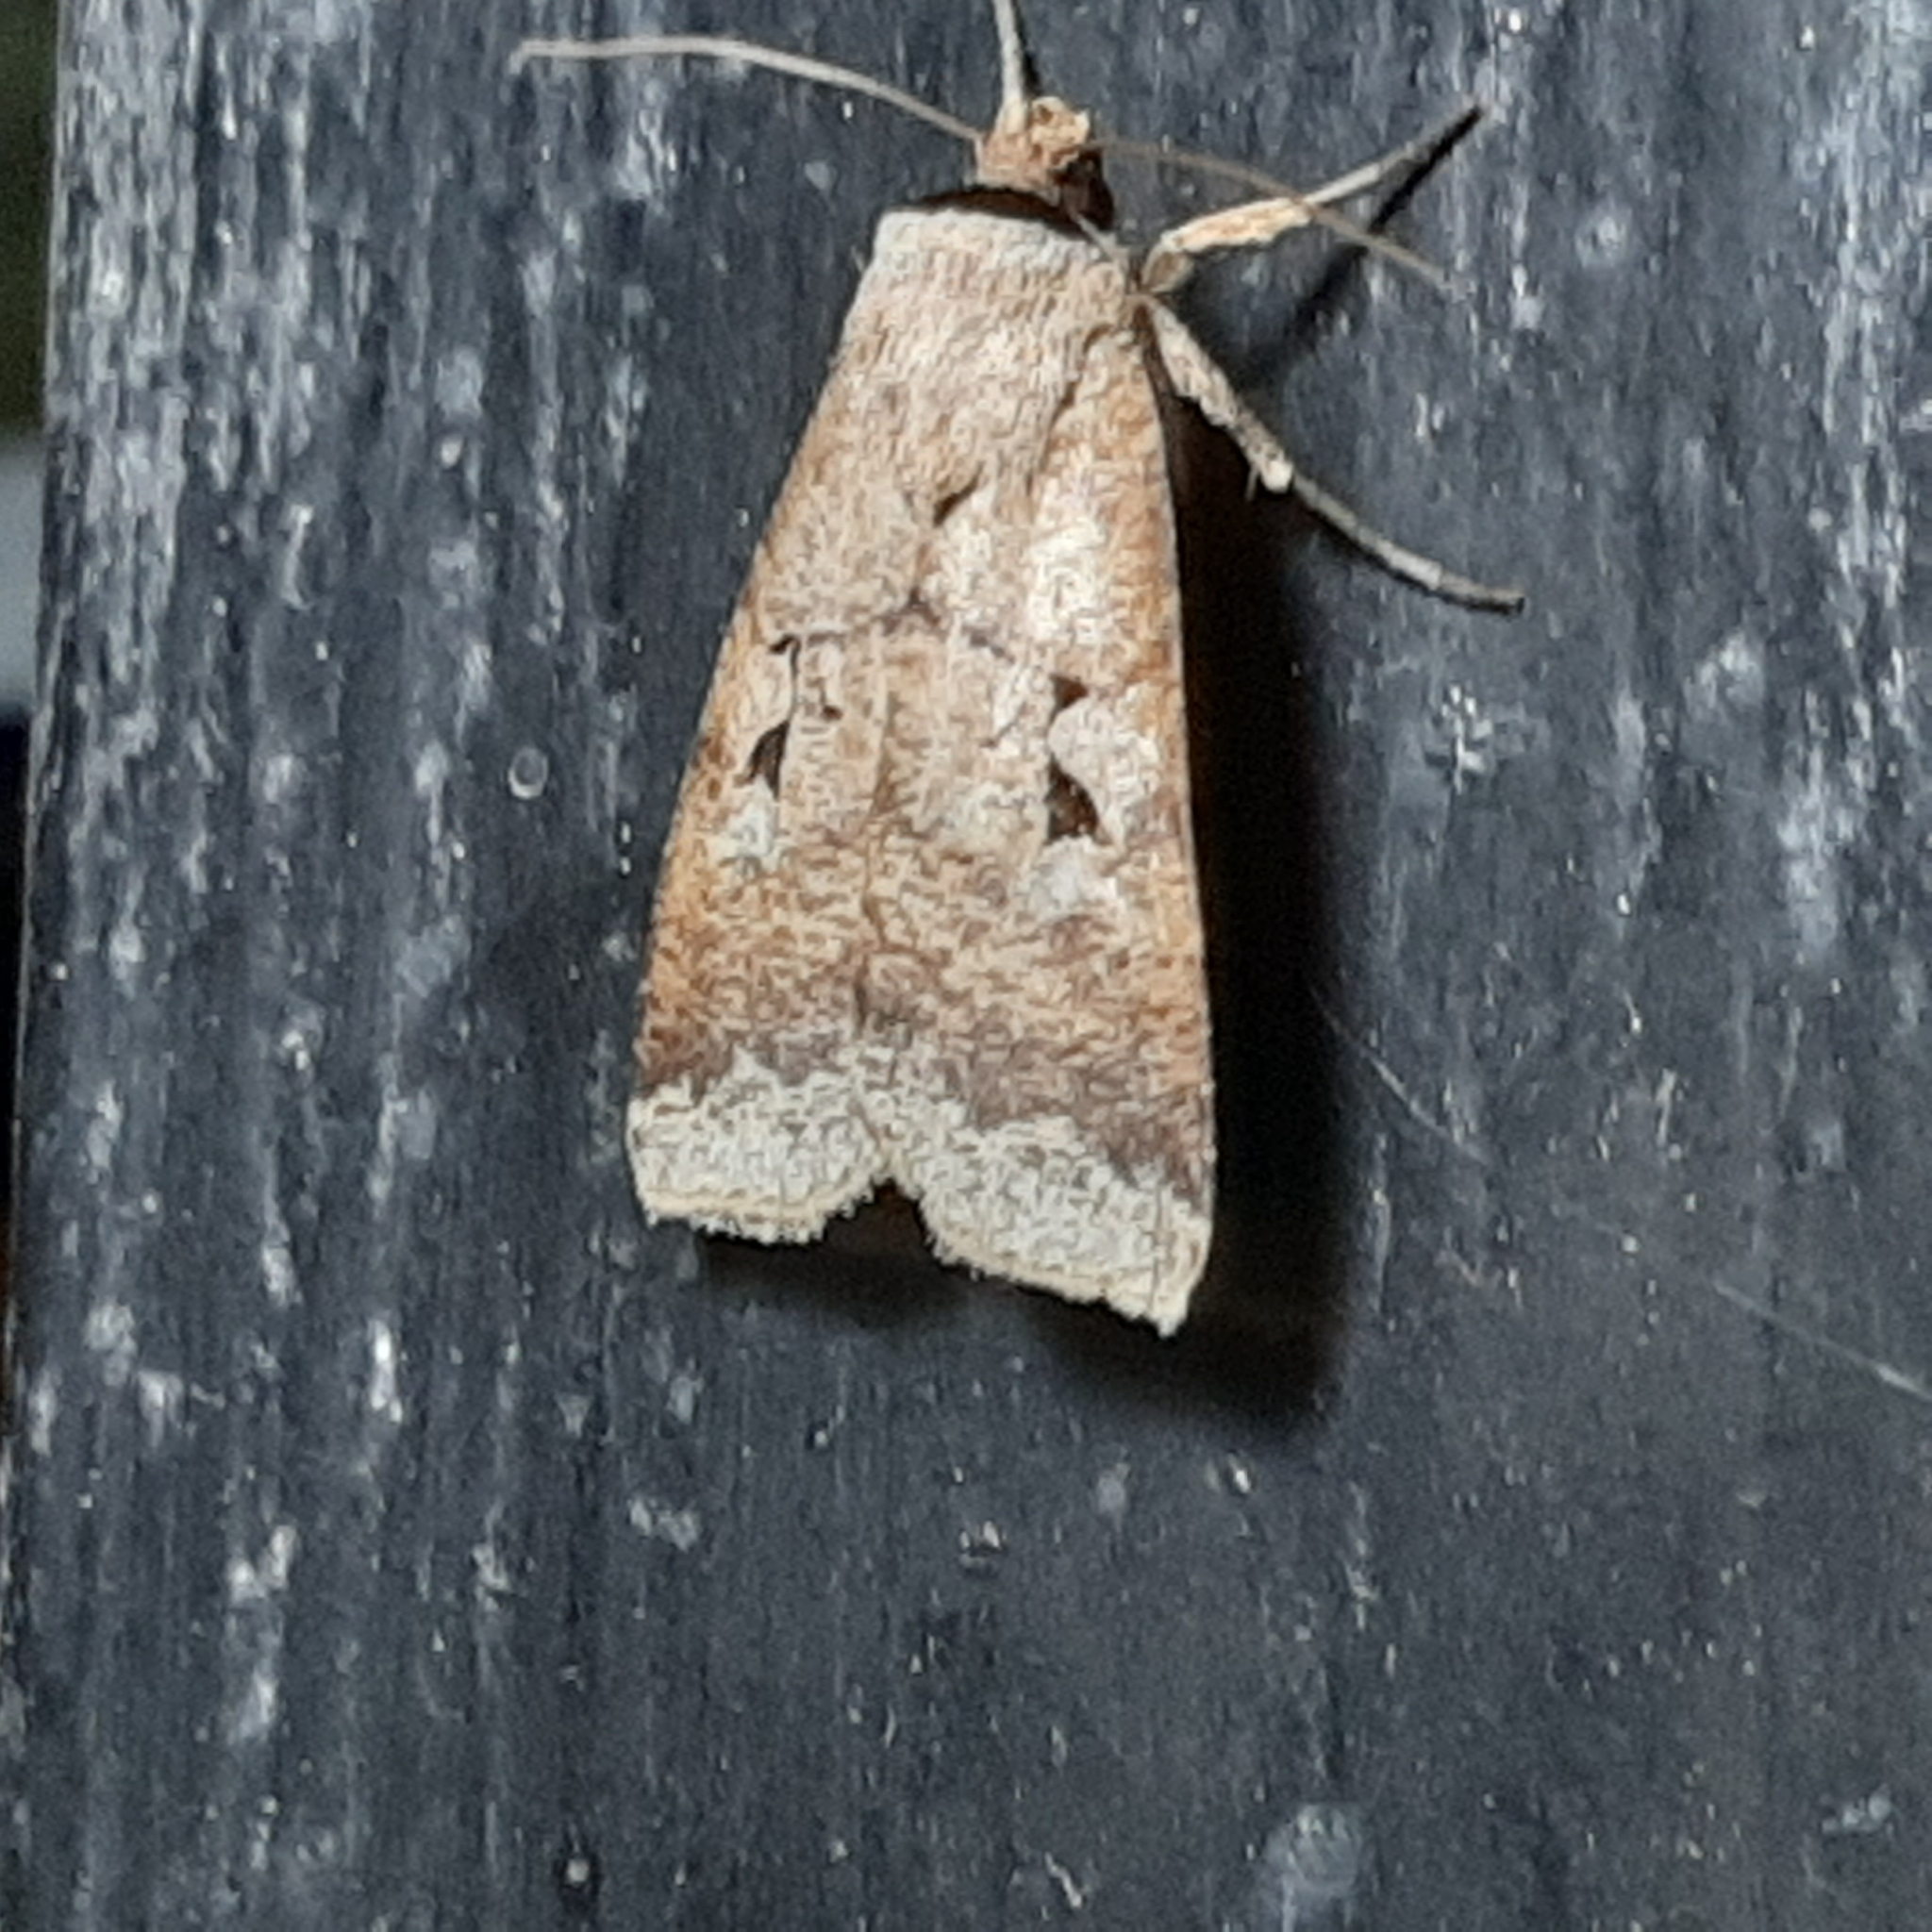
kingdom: Animalia
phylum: Arthropoda
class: Insecta
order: Lepidoptera
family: Noctuidae
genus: Praina
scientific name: Praina
